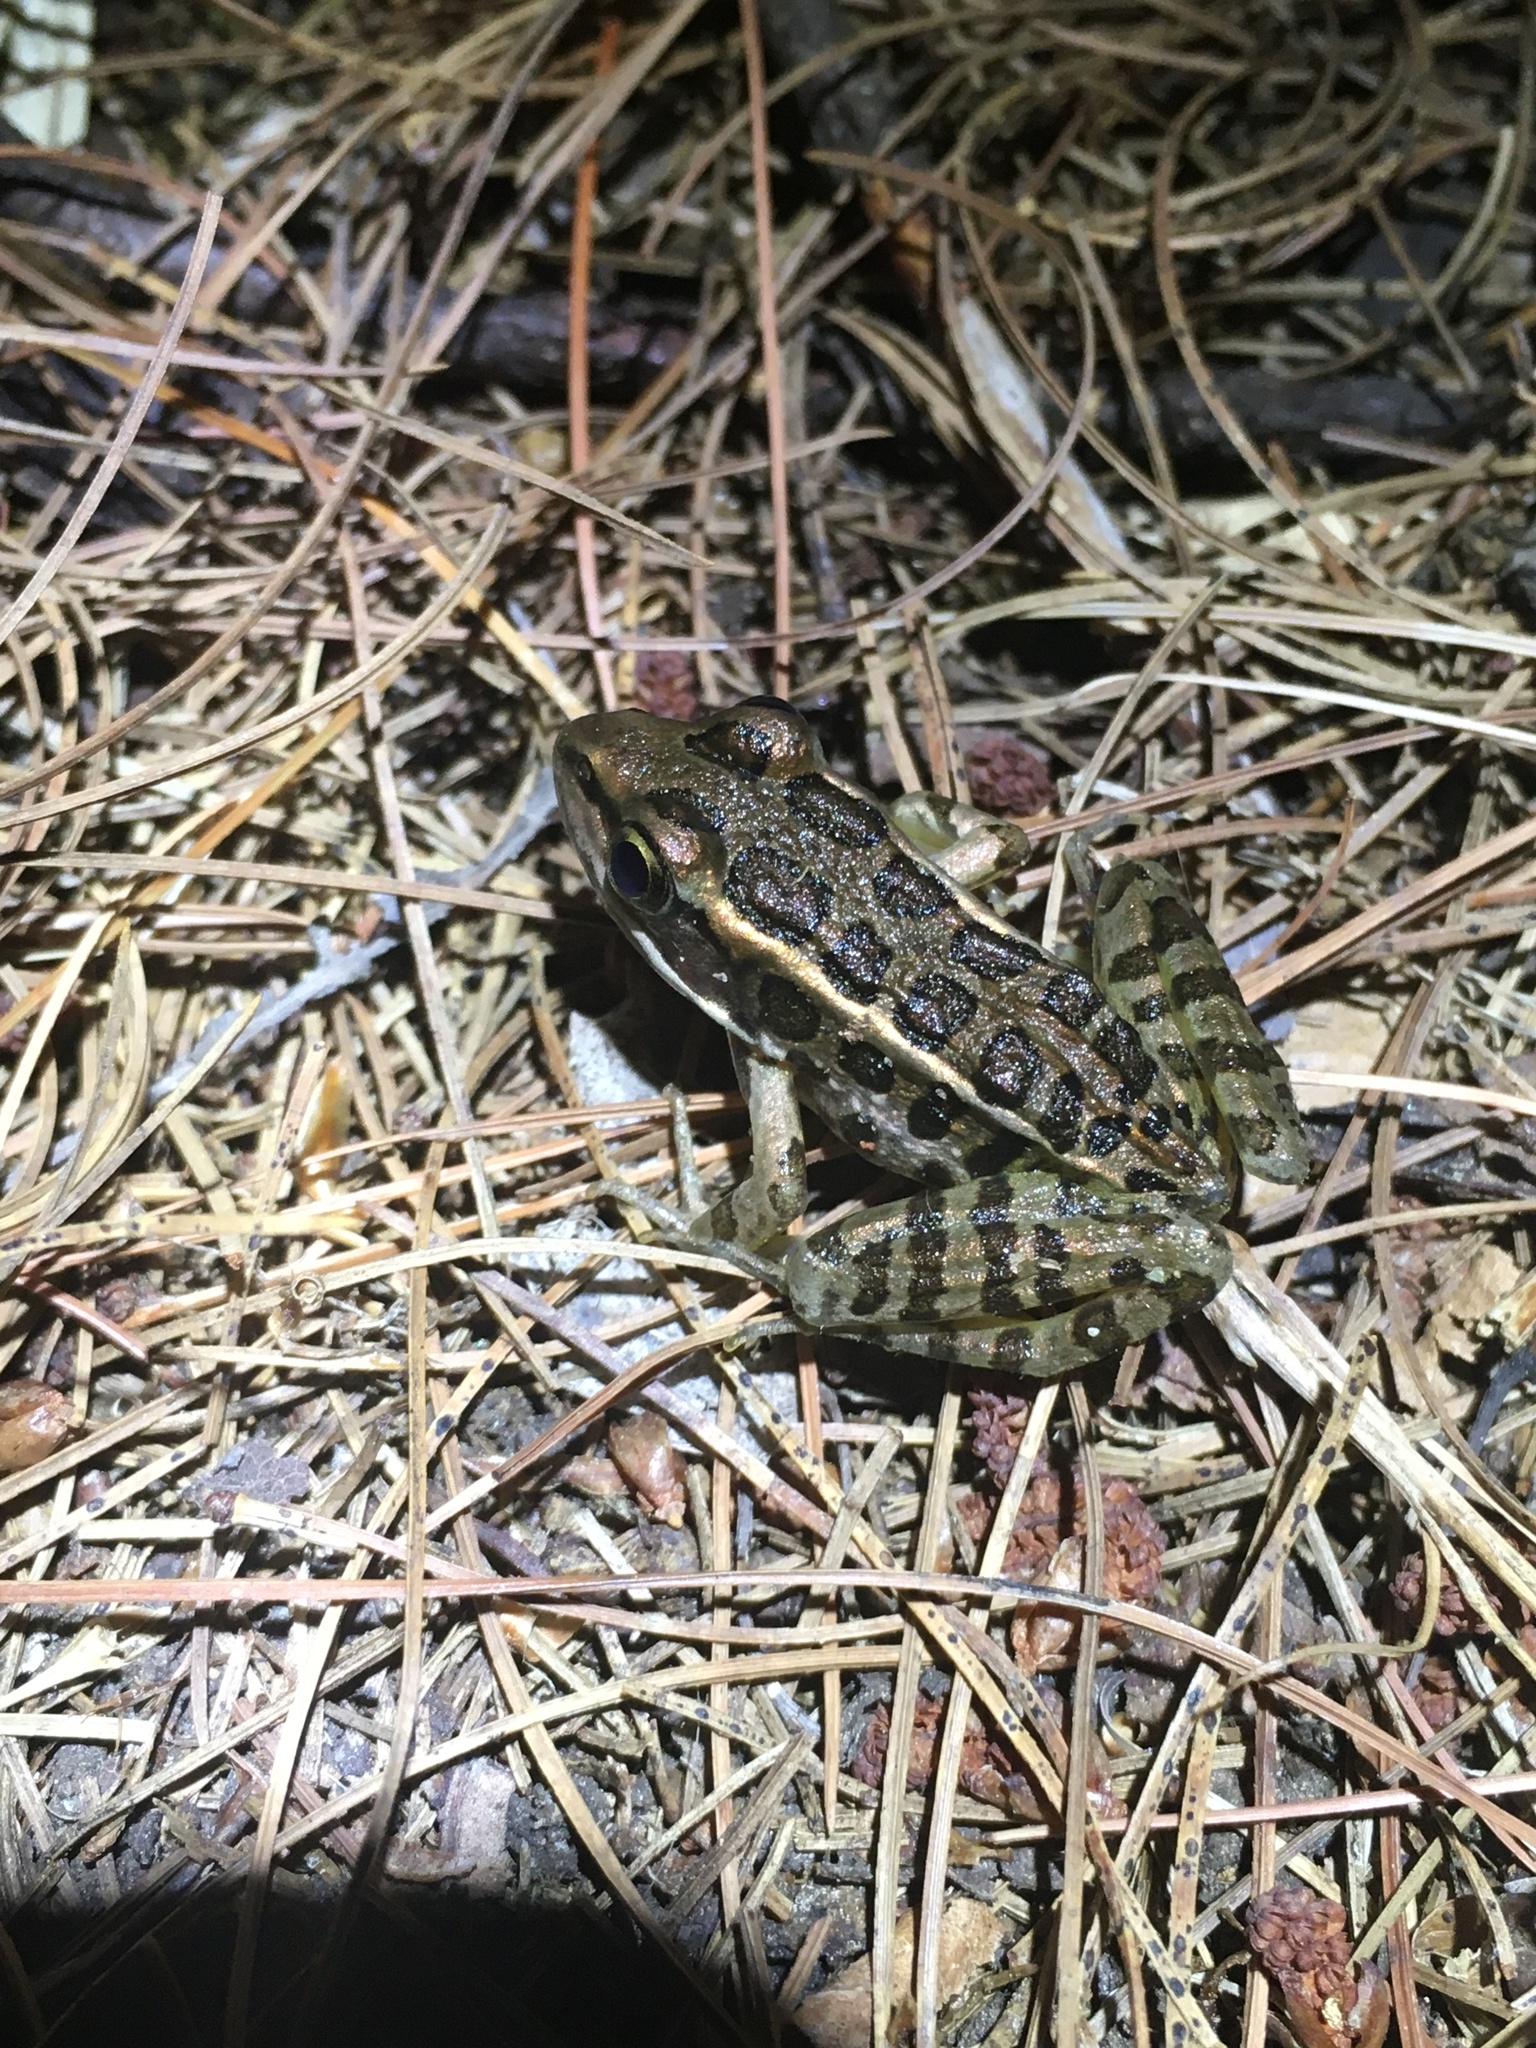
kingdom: Animalia
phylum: Chordata
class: Amphibia
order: Anura
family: Ranidae
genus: Lithobates
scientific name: Lithobates palustris
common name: Pickerel frog
